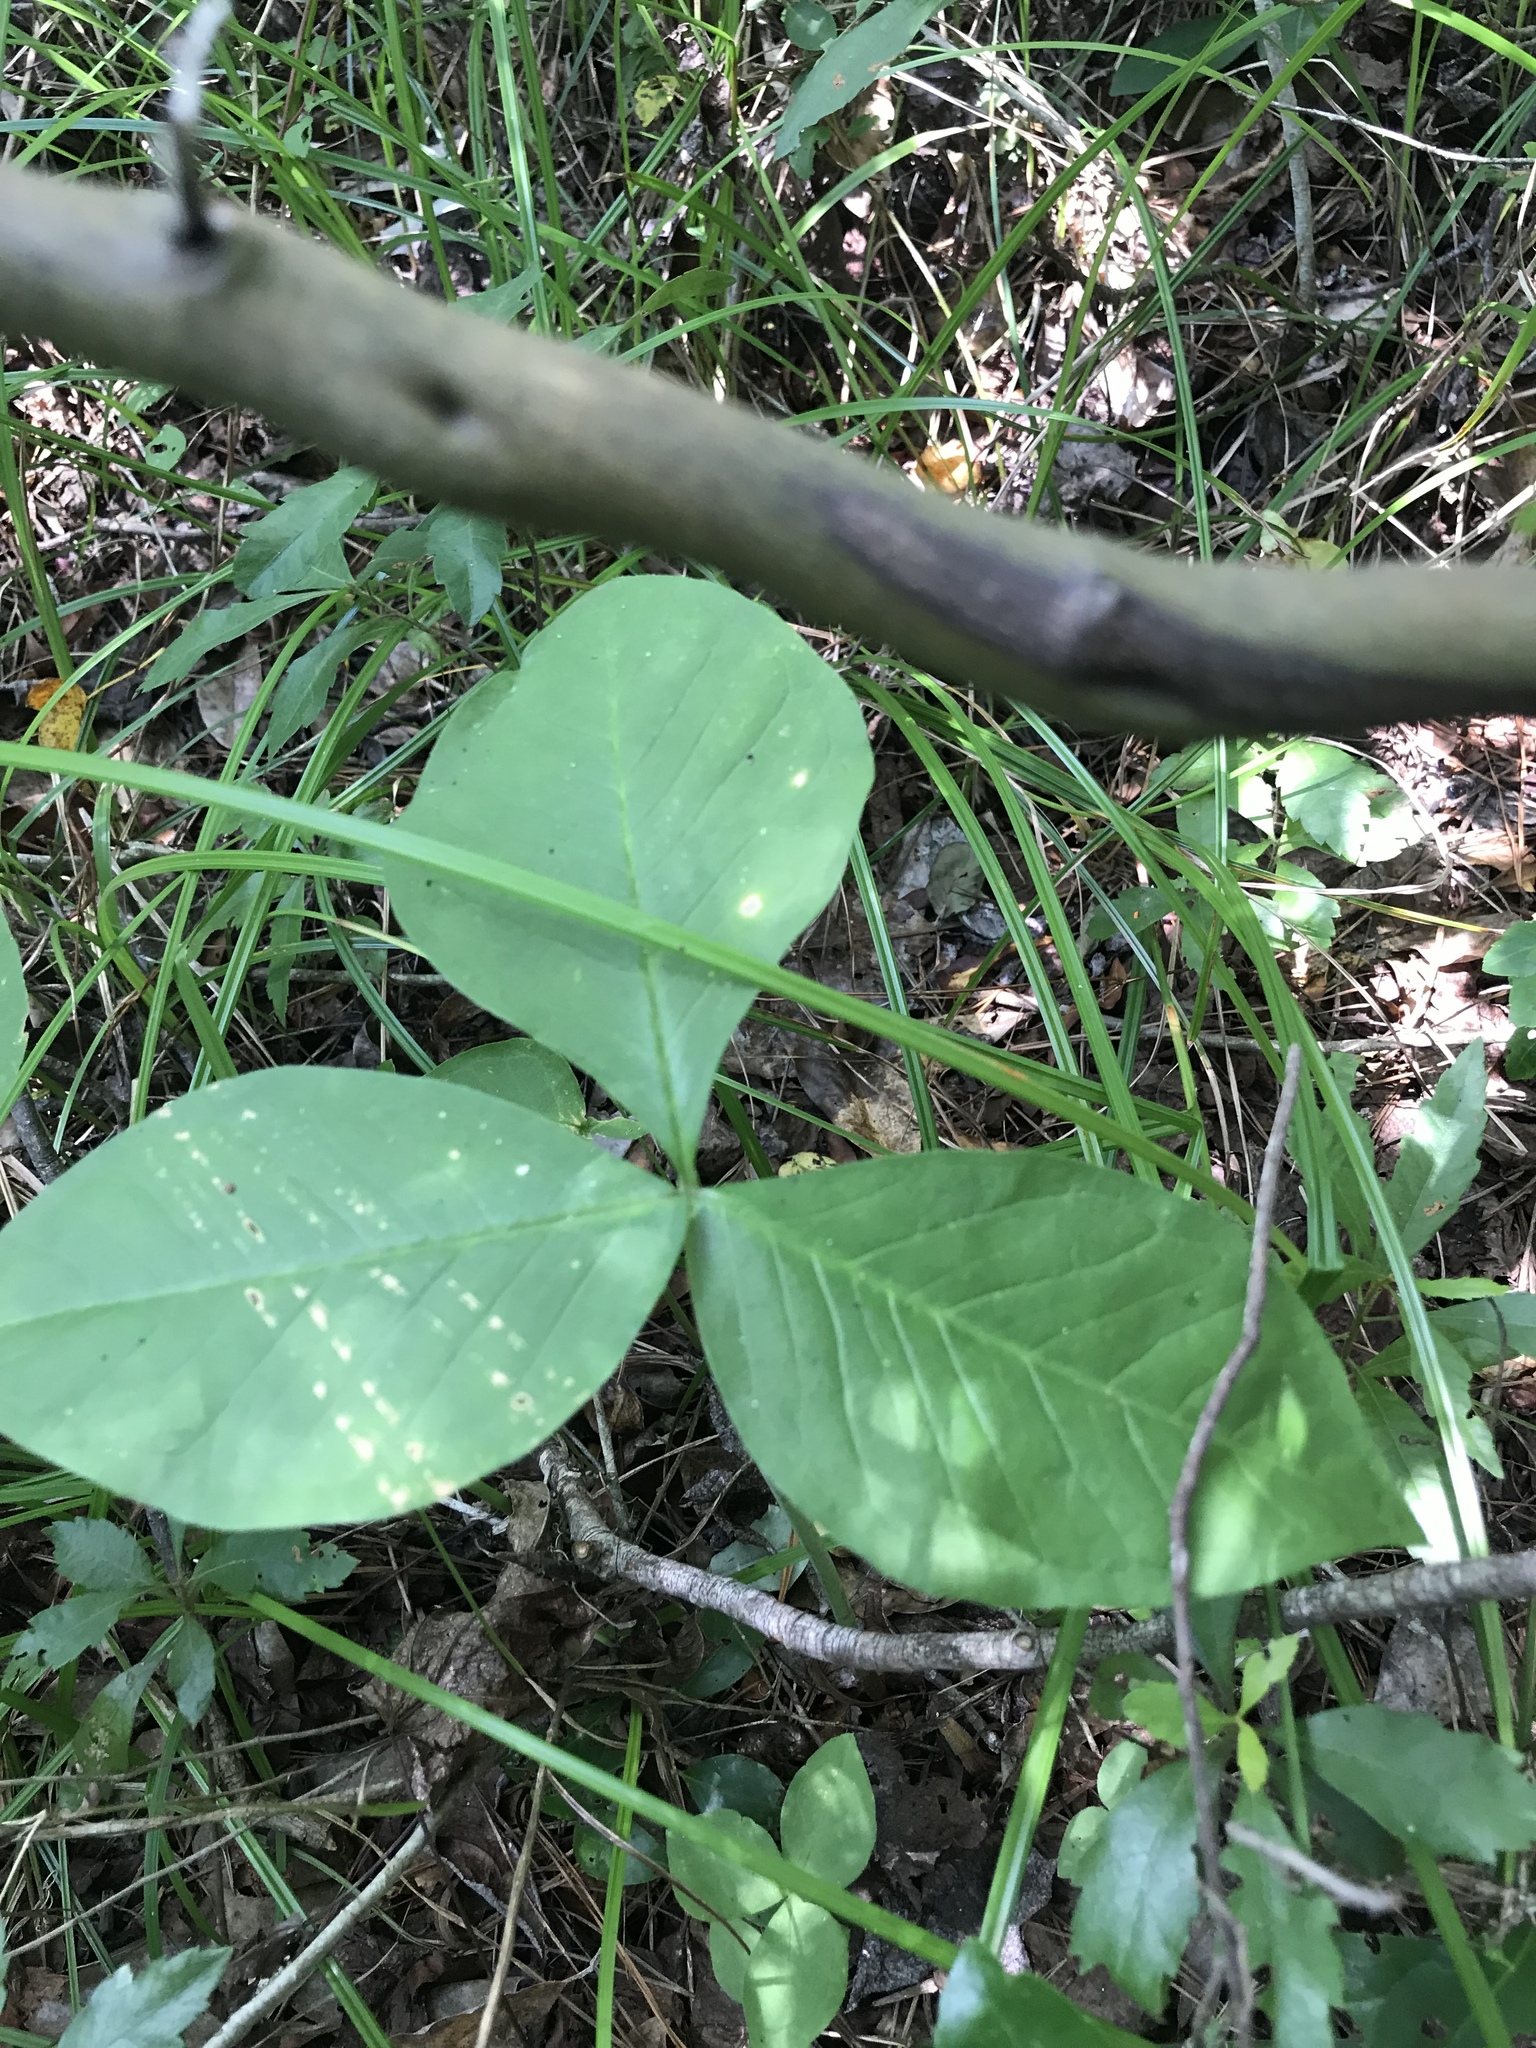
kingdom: Plantae
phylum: Tracheophyta
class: Liliopsida
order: Alismatales
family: Araceae
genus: Arisaema
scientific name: Arisaema triphyllum
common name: Jack-in-the-pulpit
